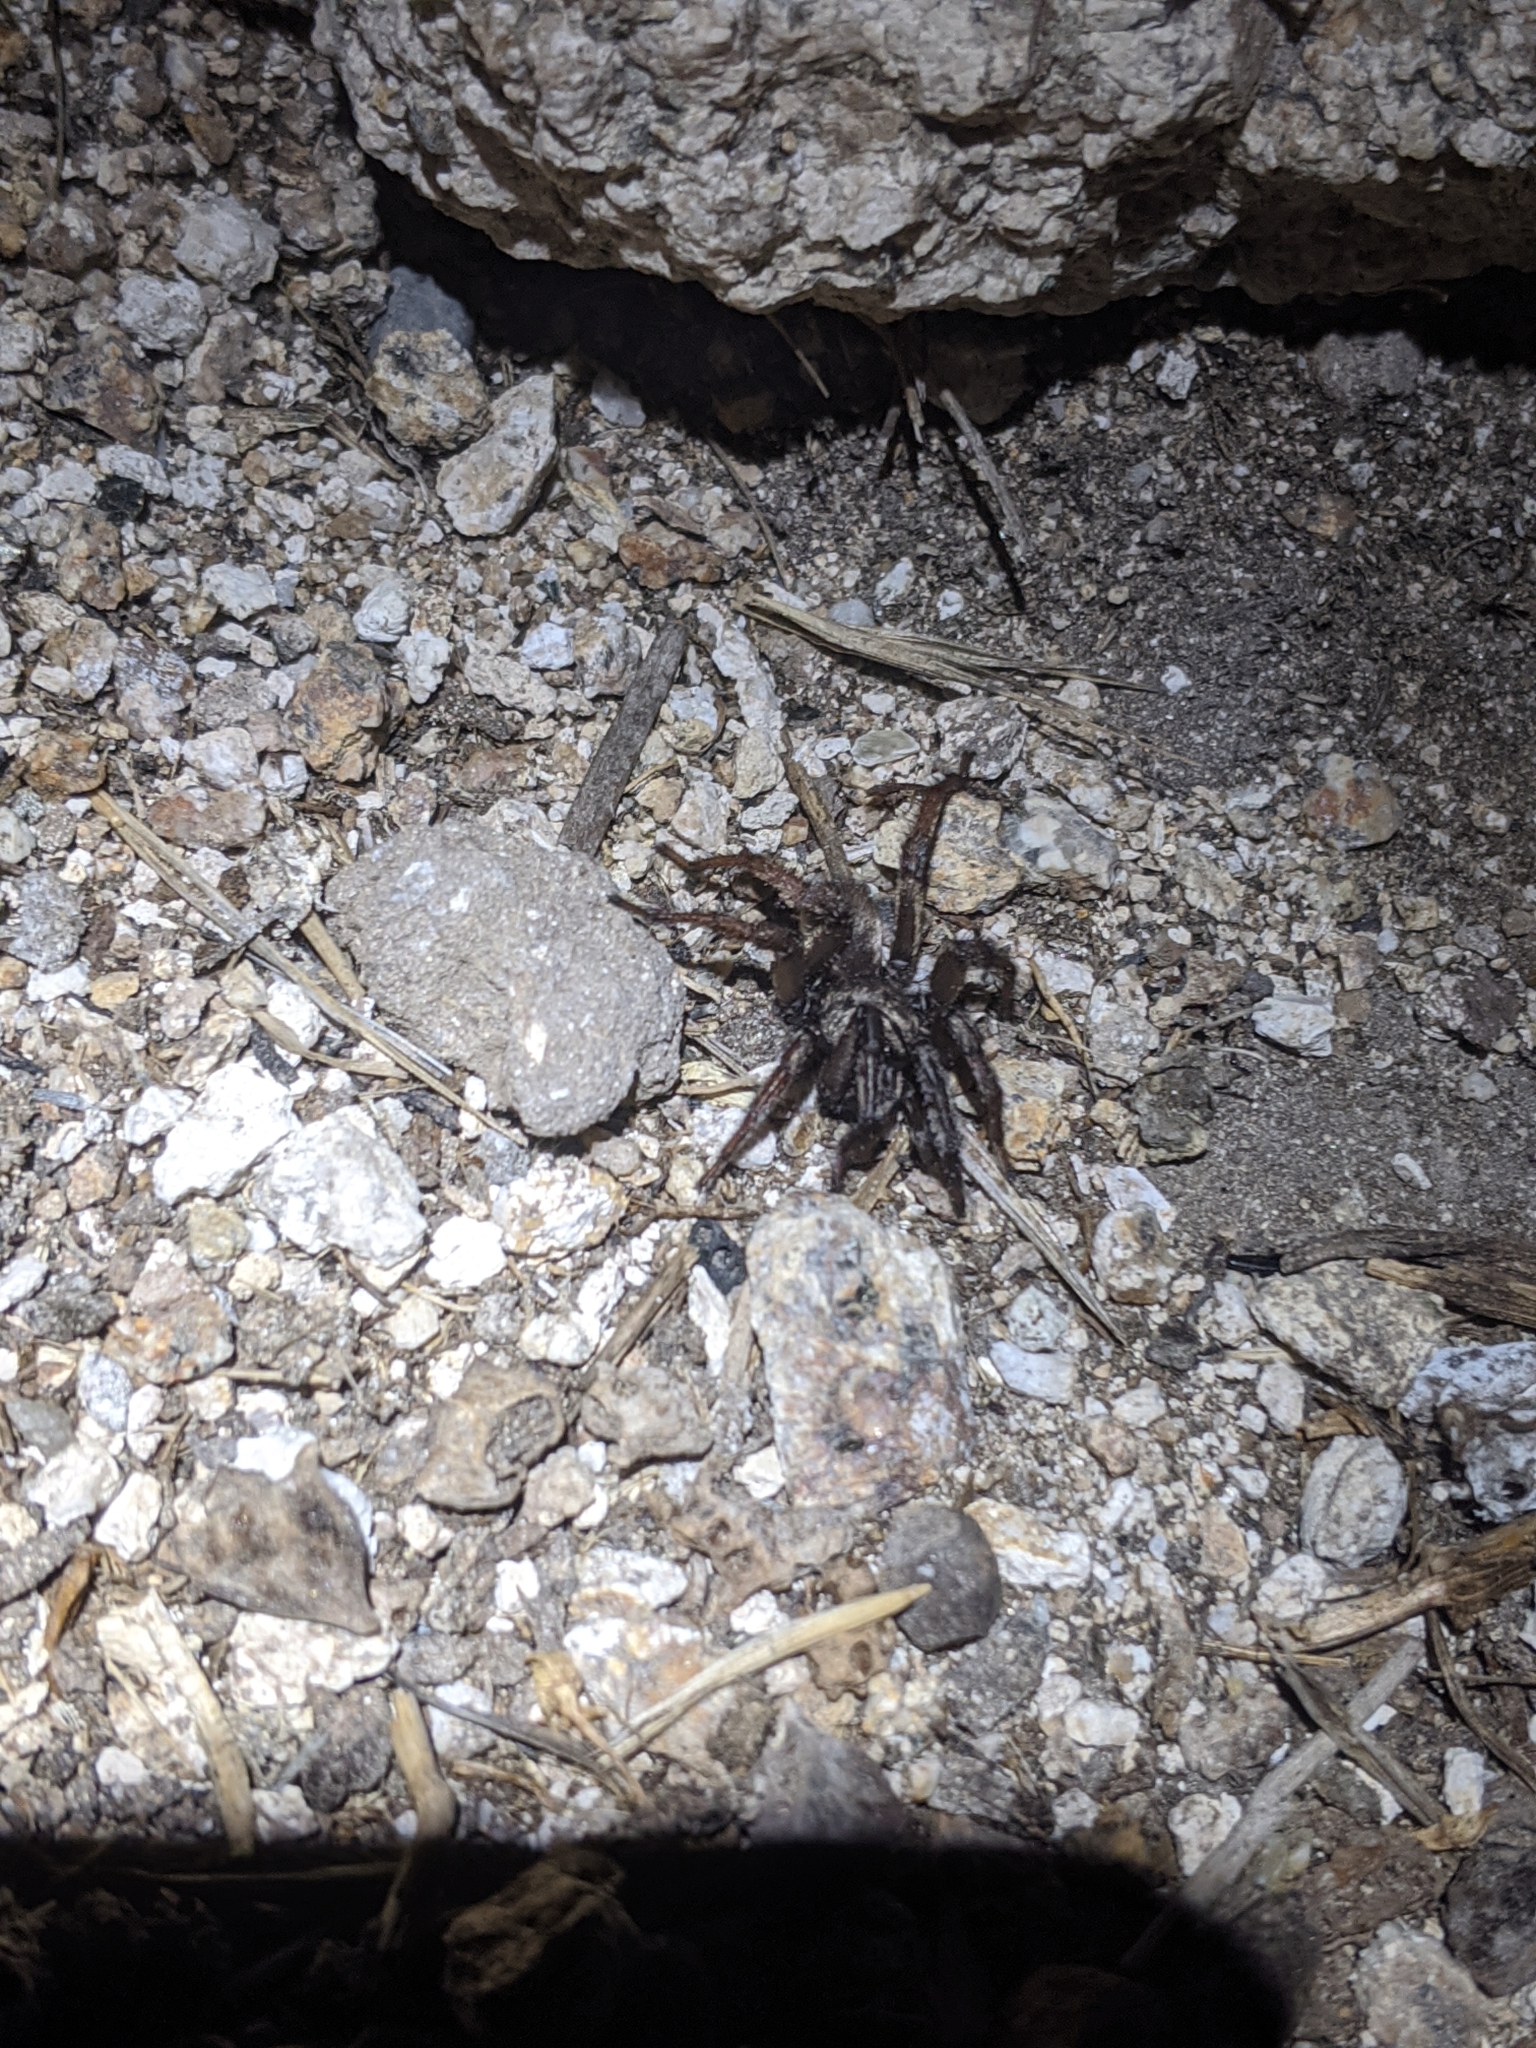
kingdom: Animalia
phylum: Arthropoda
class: Arachnida
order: Araneae
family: Nemesiidae
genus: Calisoga
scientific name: Calisoga longitarsis
